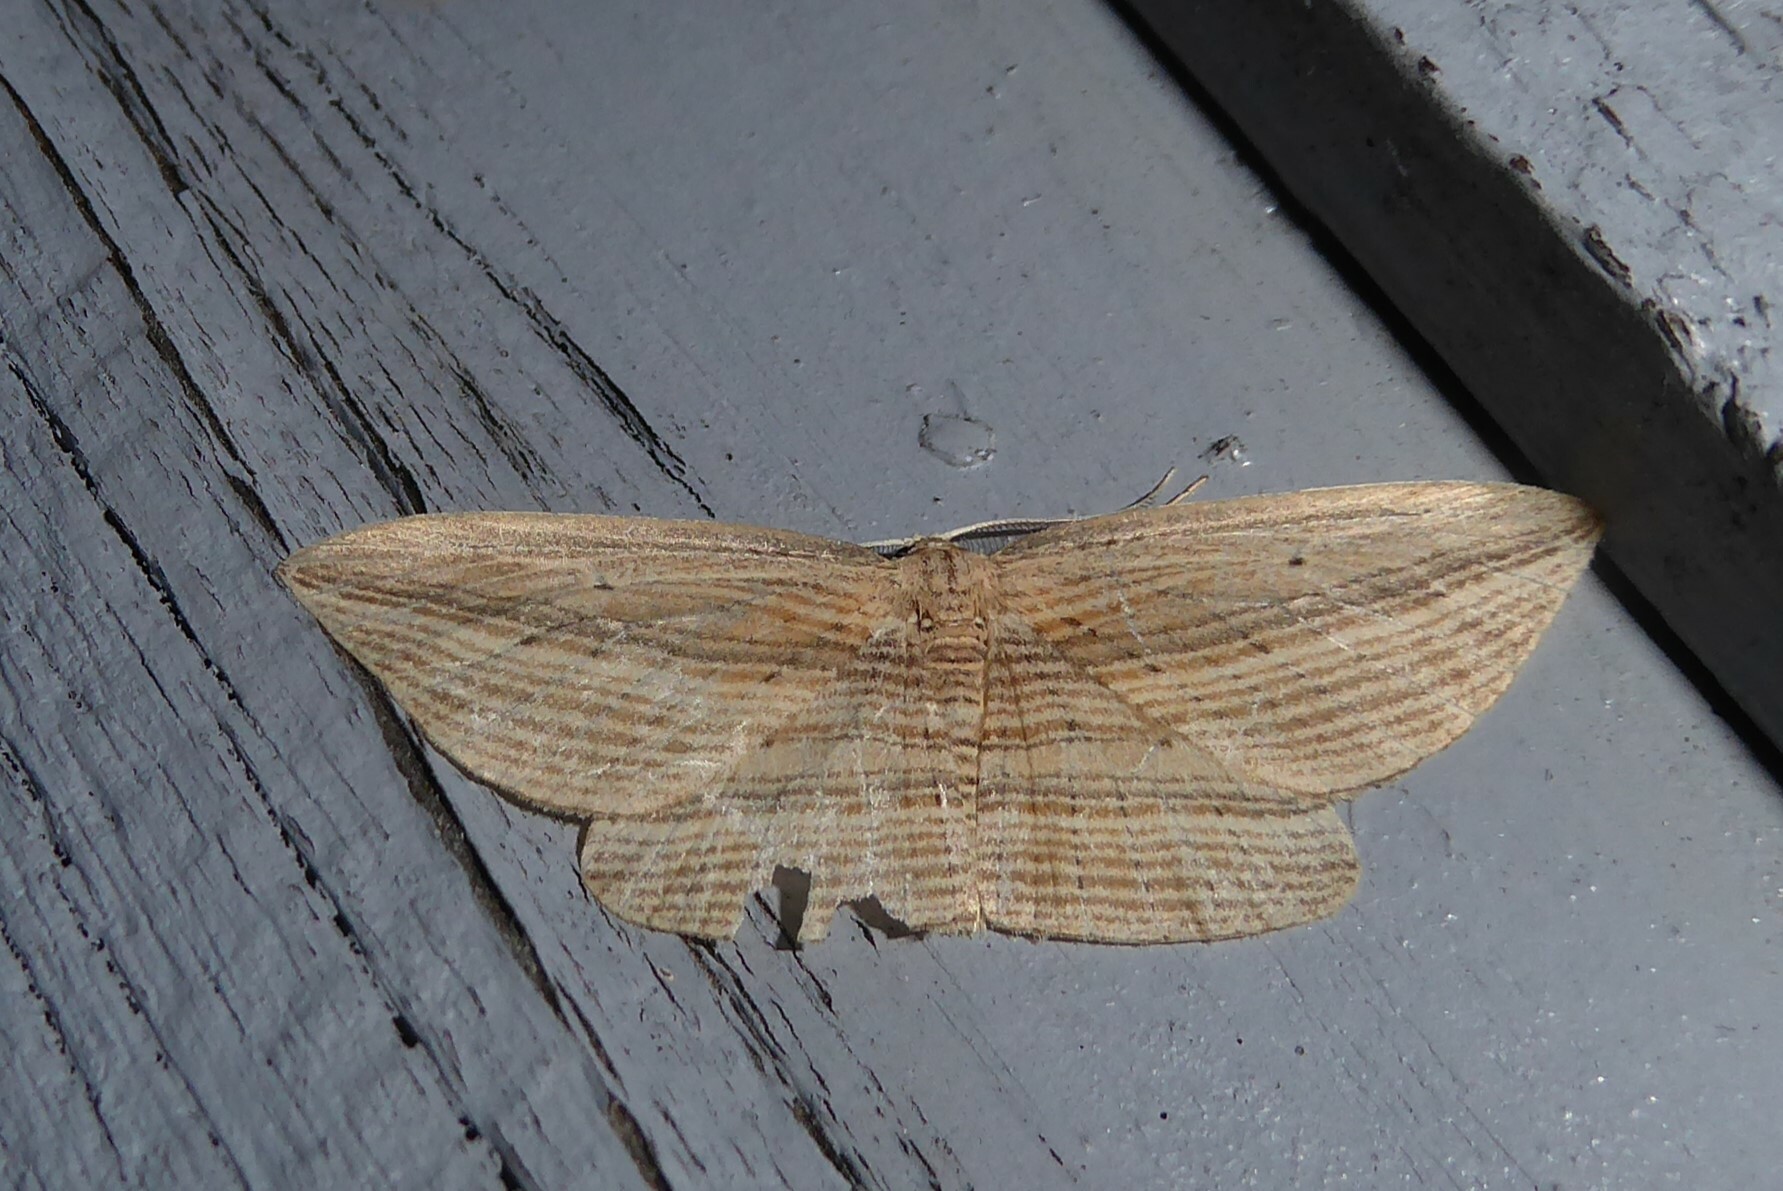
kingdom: Animalia
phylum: Arthropoda
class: Insecta
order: Lepidoptera
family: Geometridae
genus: Epiphryne
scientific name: Epiphryne verriculata
